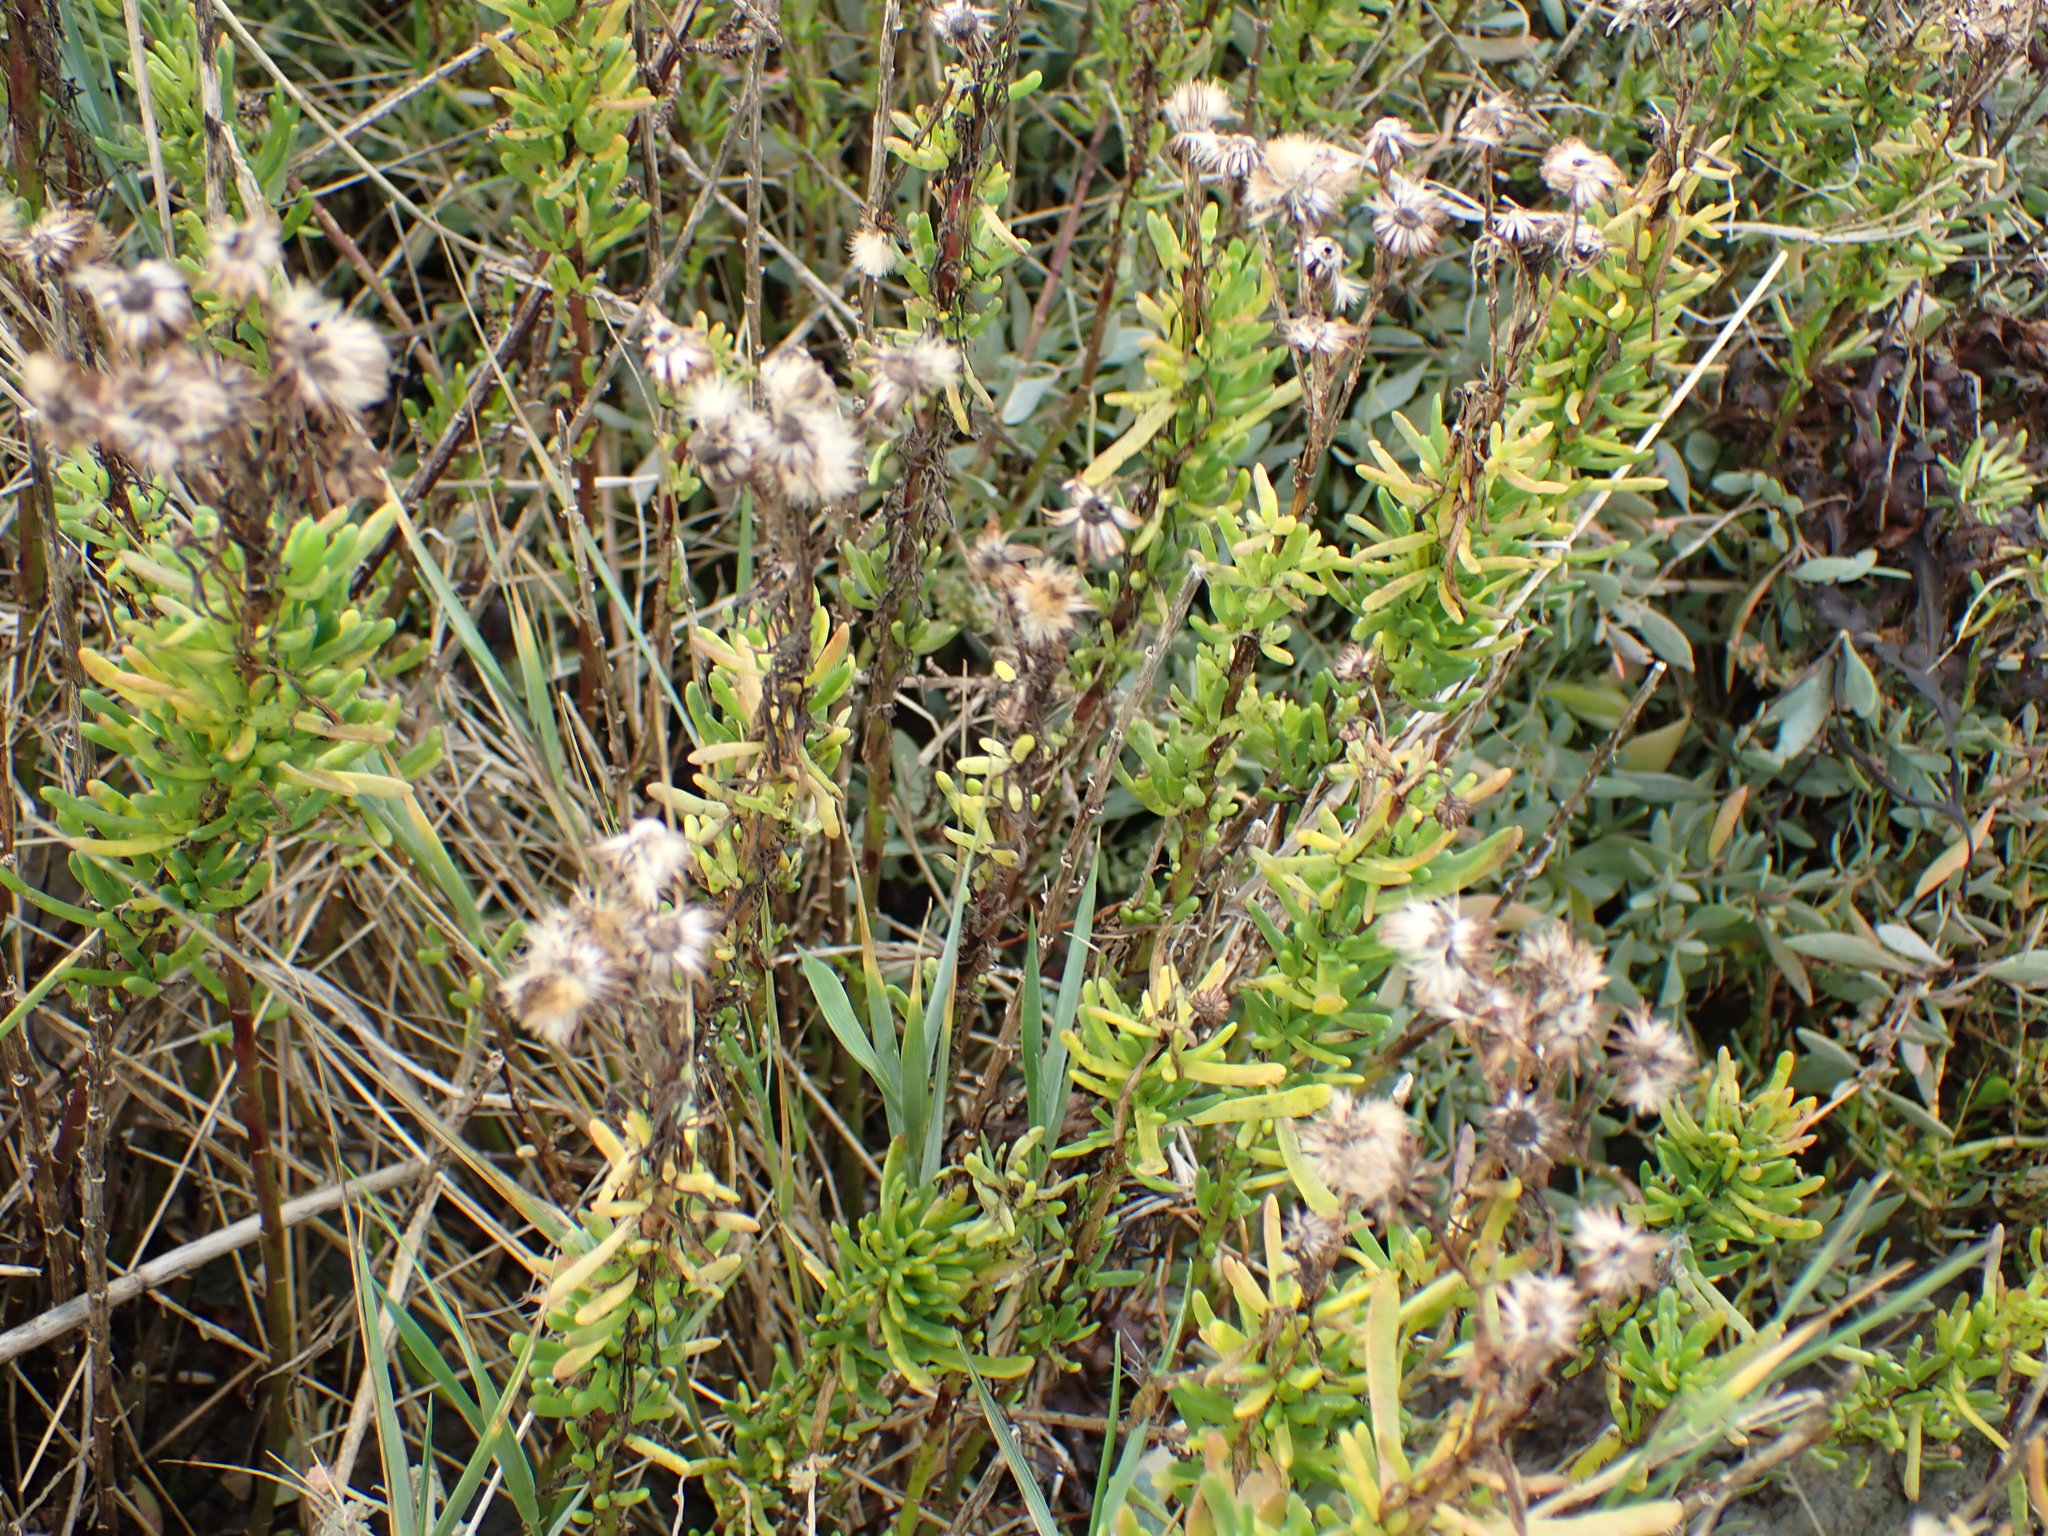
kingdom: Plantae
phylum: Tracheophyta
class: Magnoliopsida
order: Asterales
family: Asteraceae
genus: Limbarda
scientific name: Limbarda crithmoides
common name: Golden samphire
